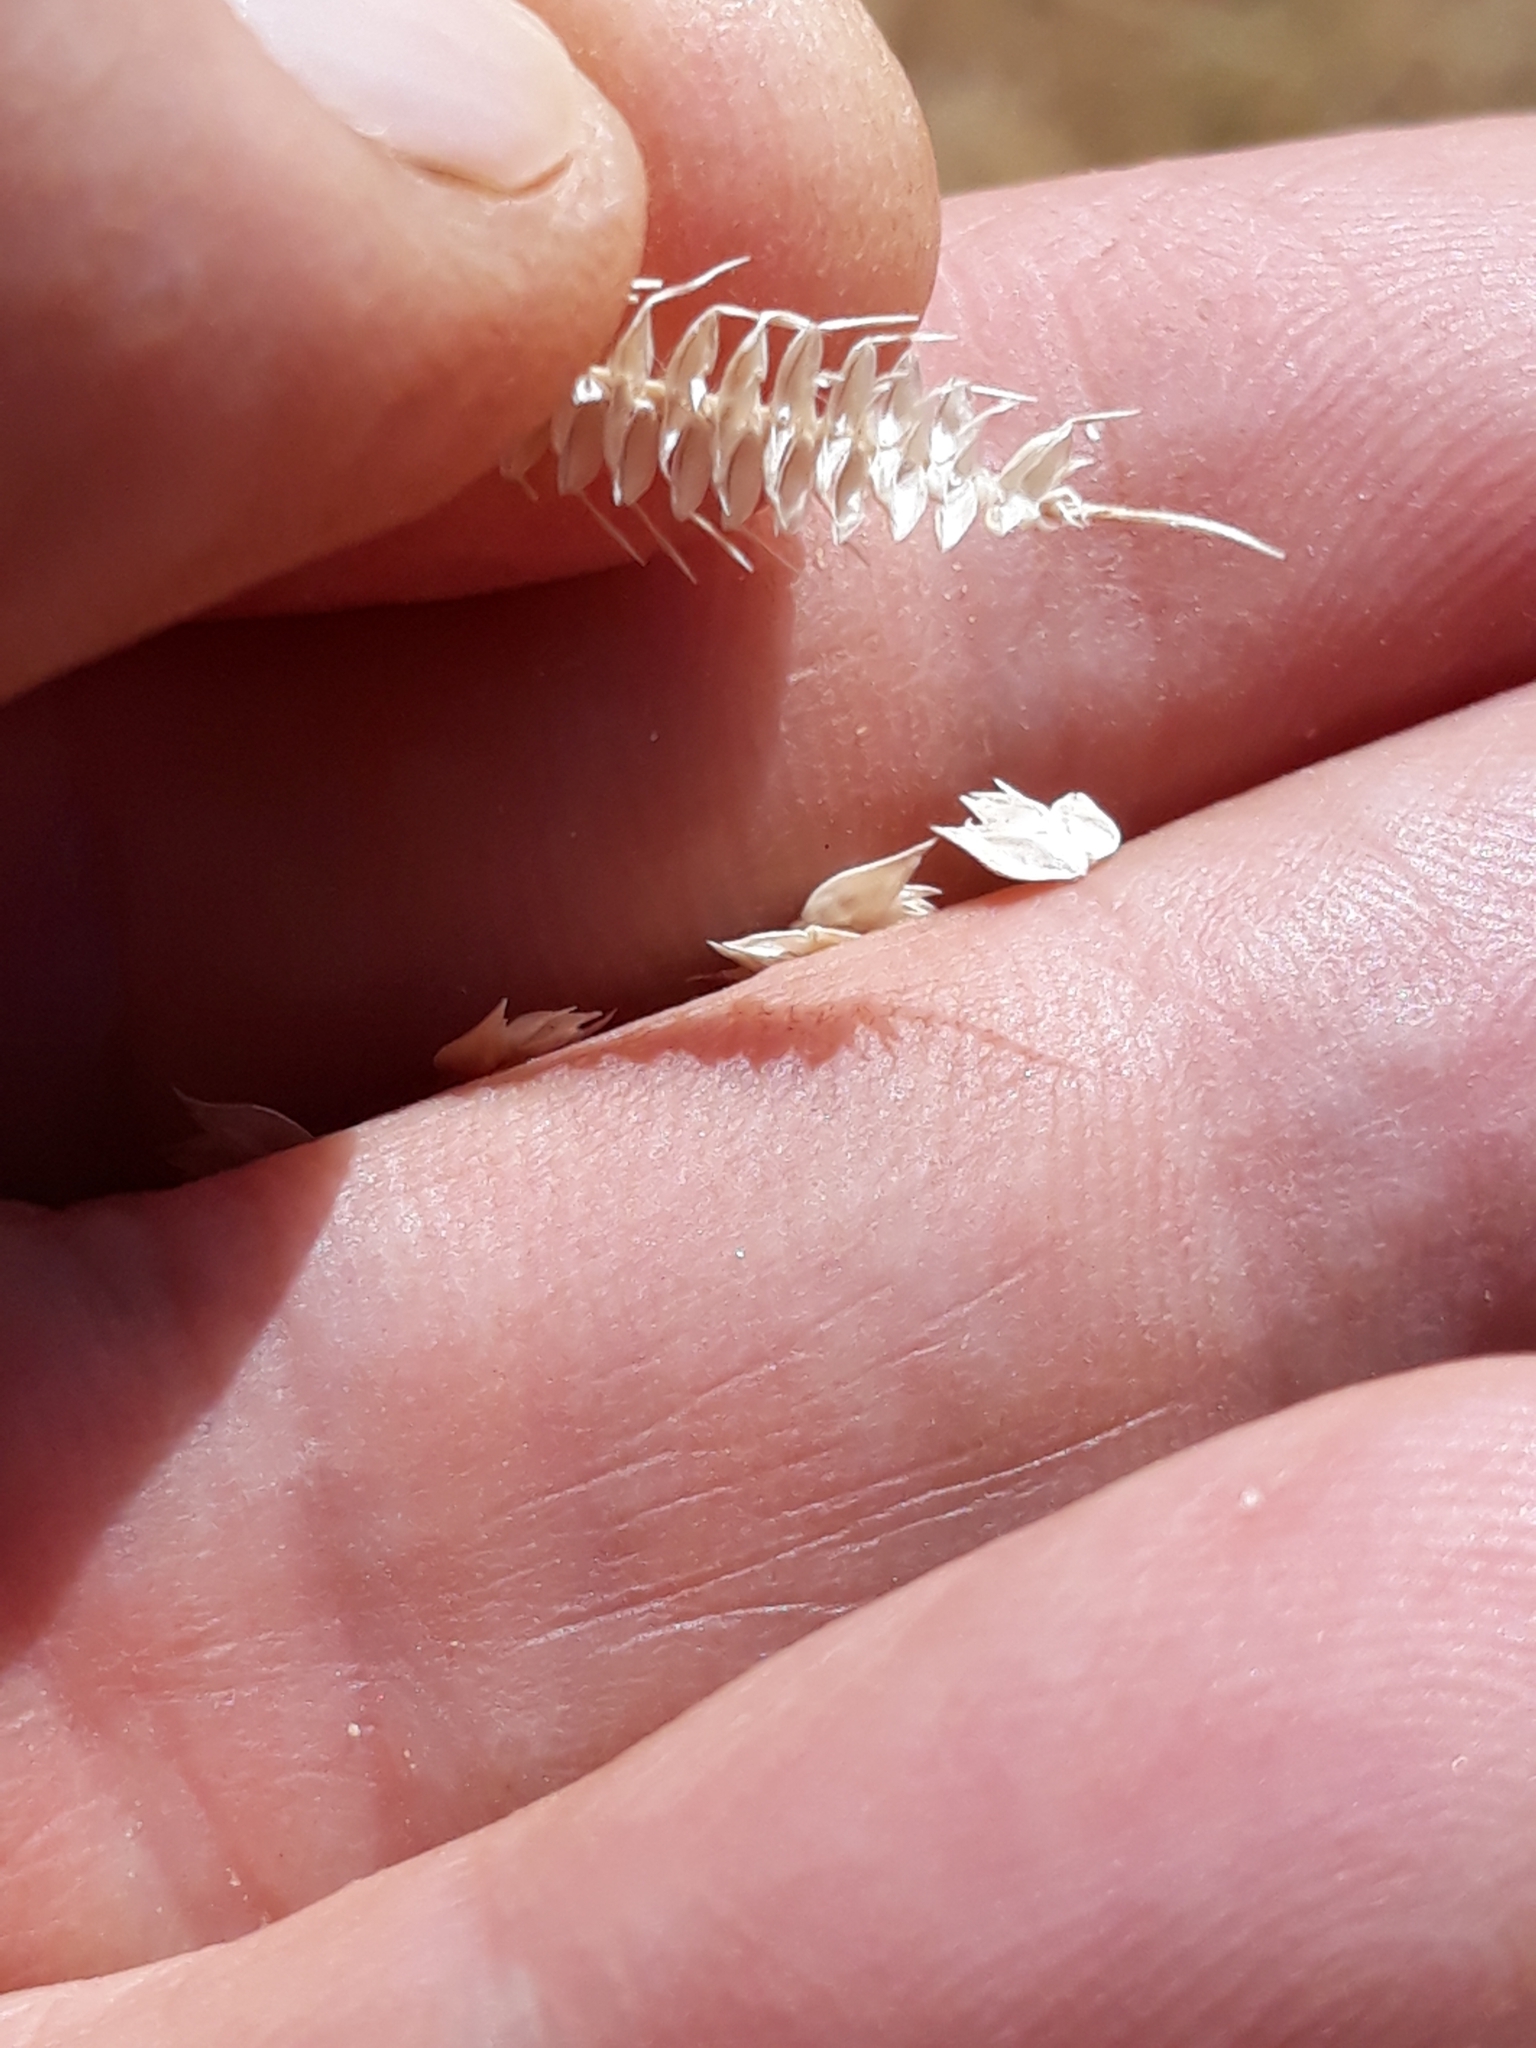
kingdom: Plantae
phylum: Tracheophyta
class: Liliopsida
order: Poales
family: Poaceae
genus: Dactyloctenium
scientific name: Dactyloctenium aegyptium
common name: Egyptian grass
